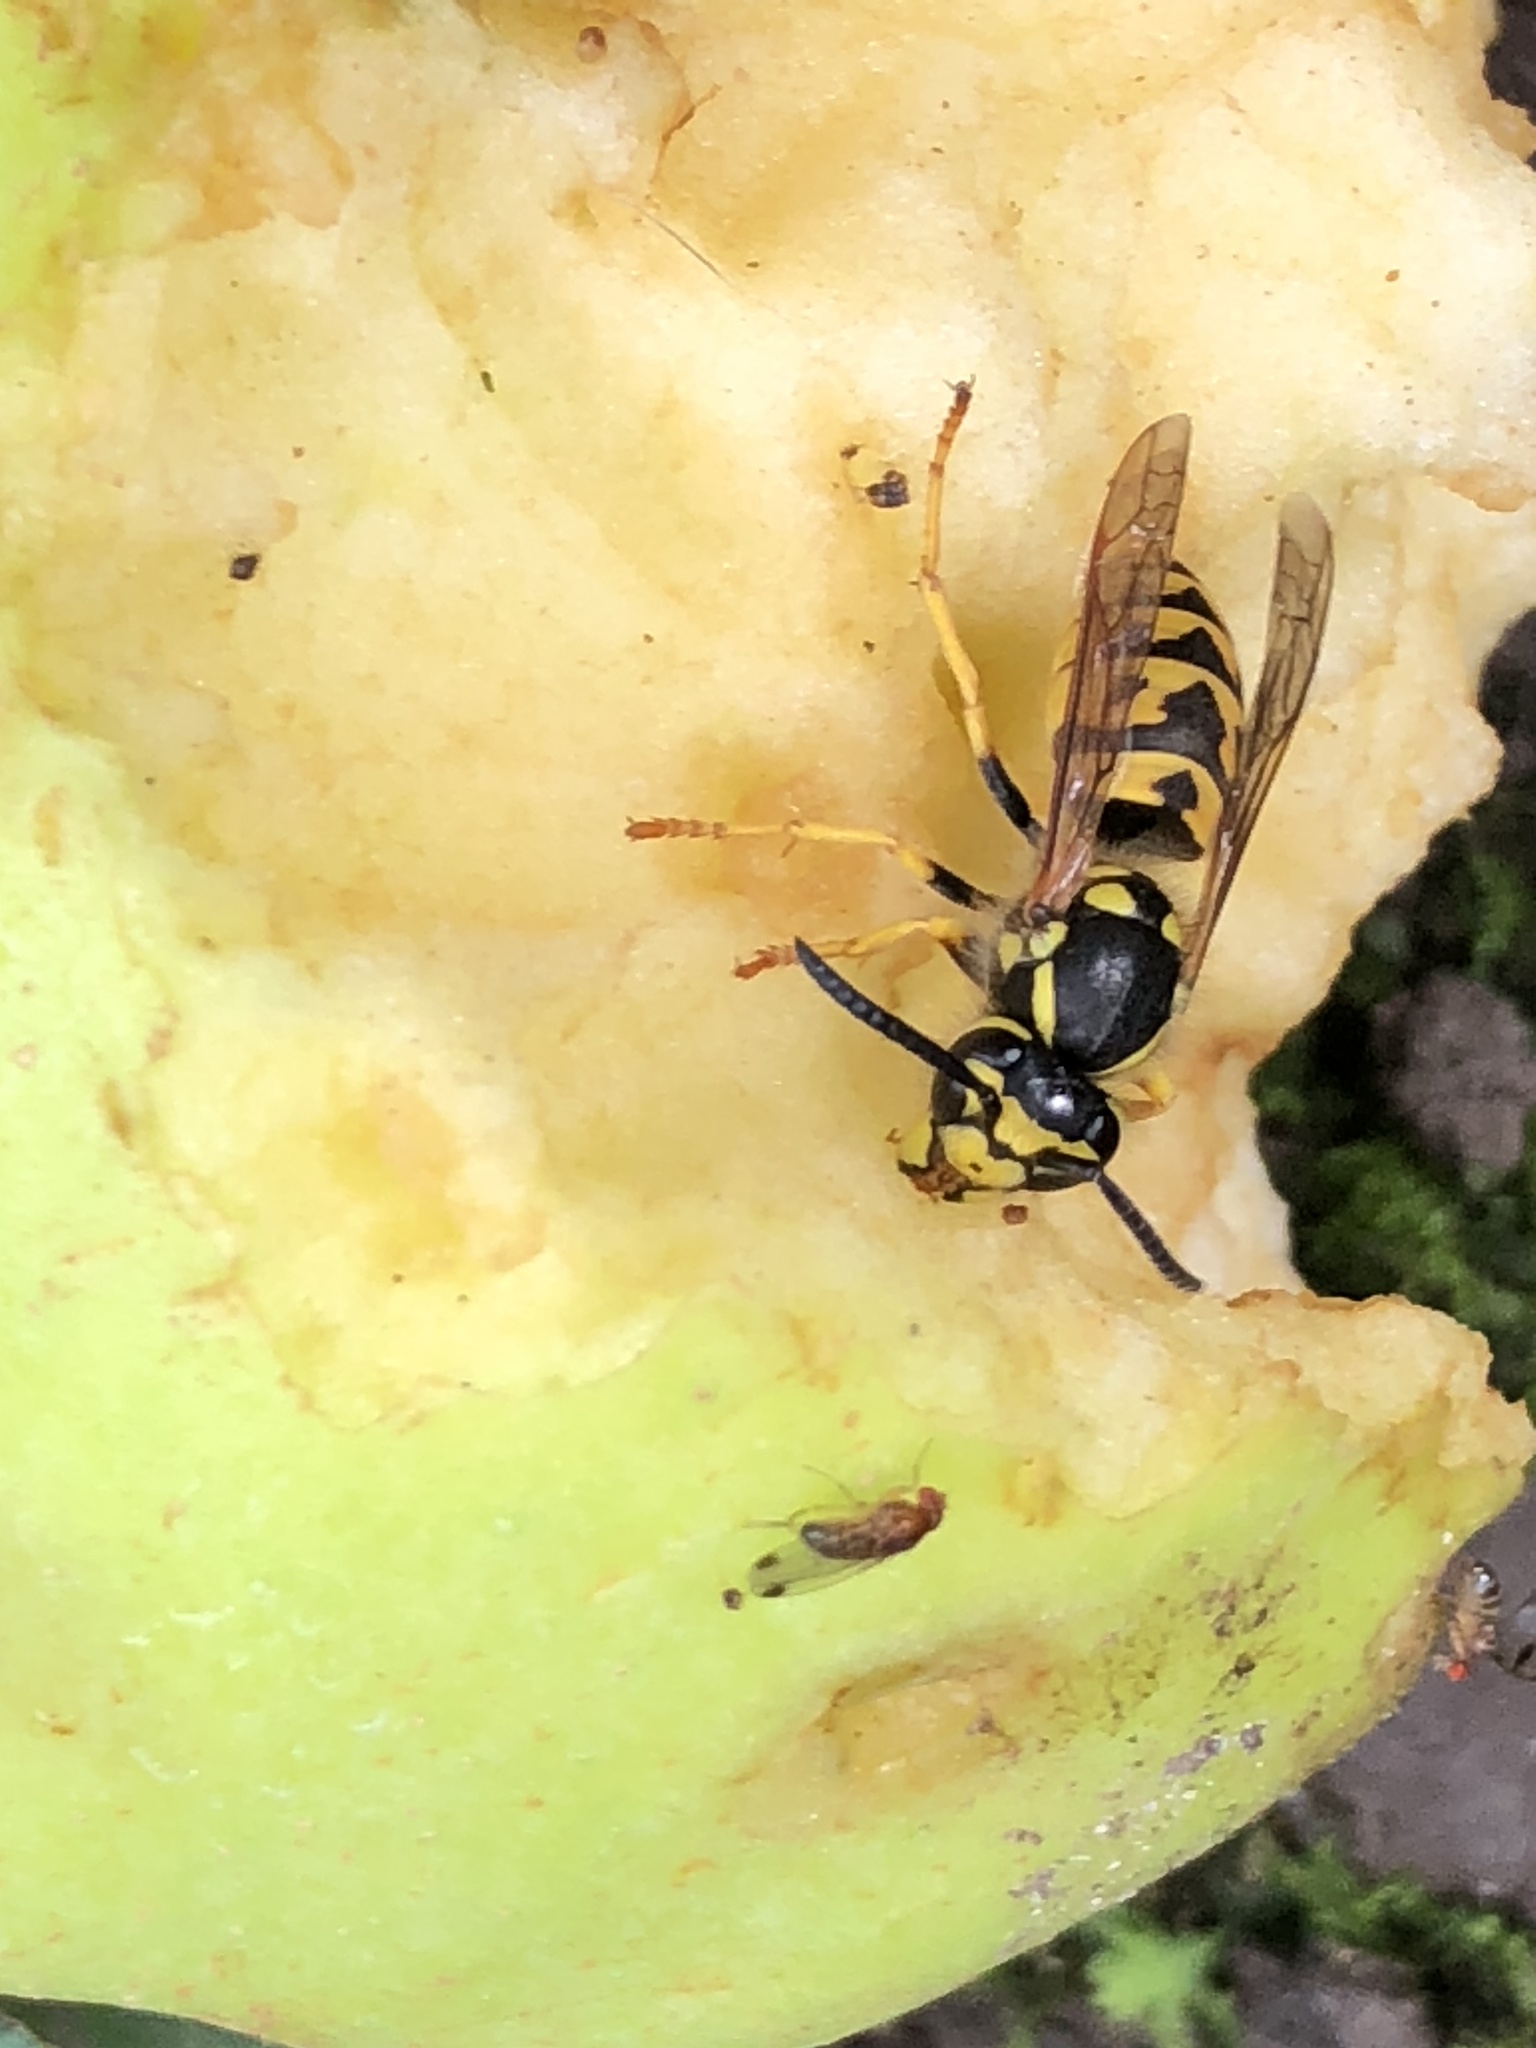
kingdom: Animalia
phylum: Arthropoda
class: Insecta
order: Hymenoptera
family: Vespidae
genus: Vespula
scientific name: Vespula germanica
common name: German wasp
